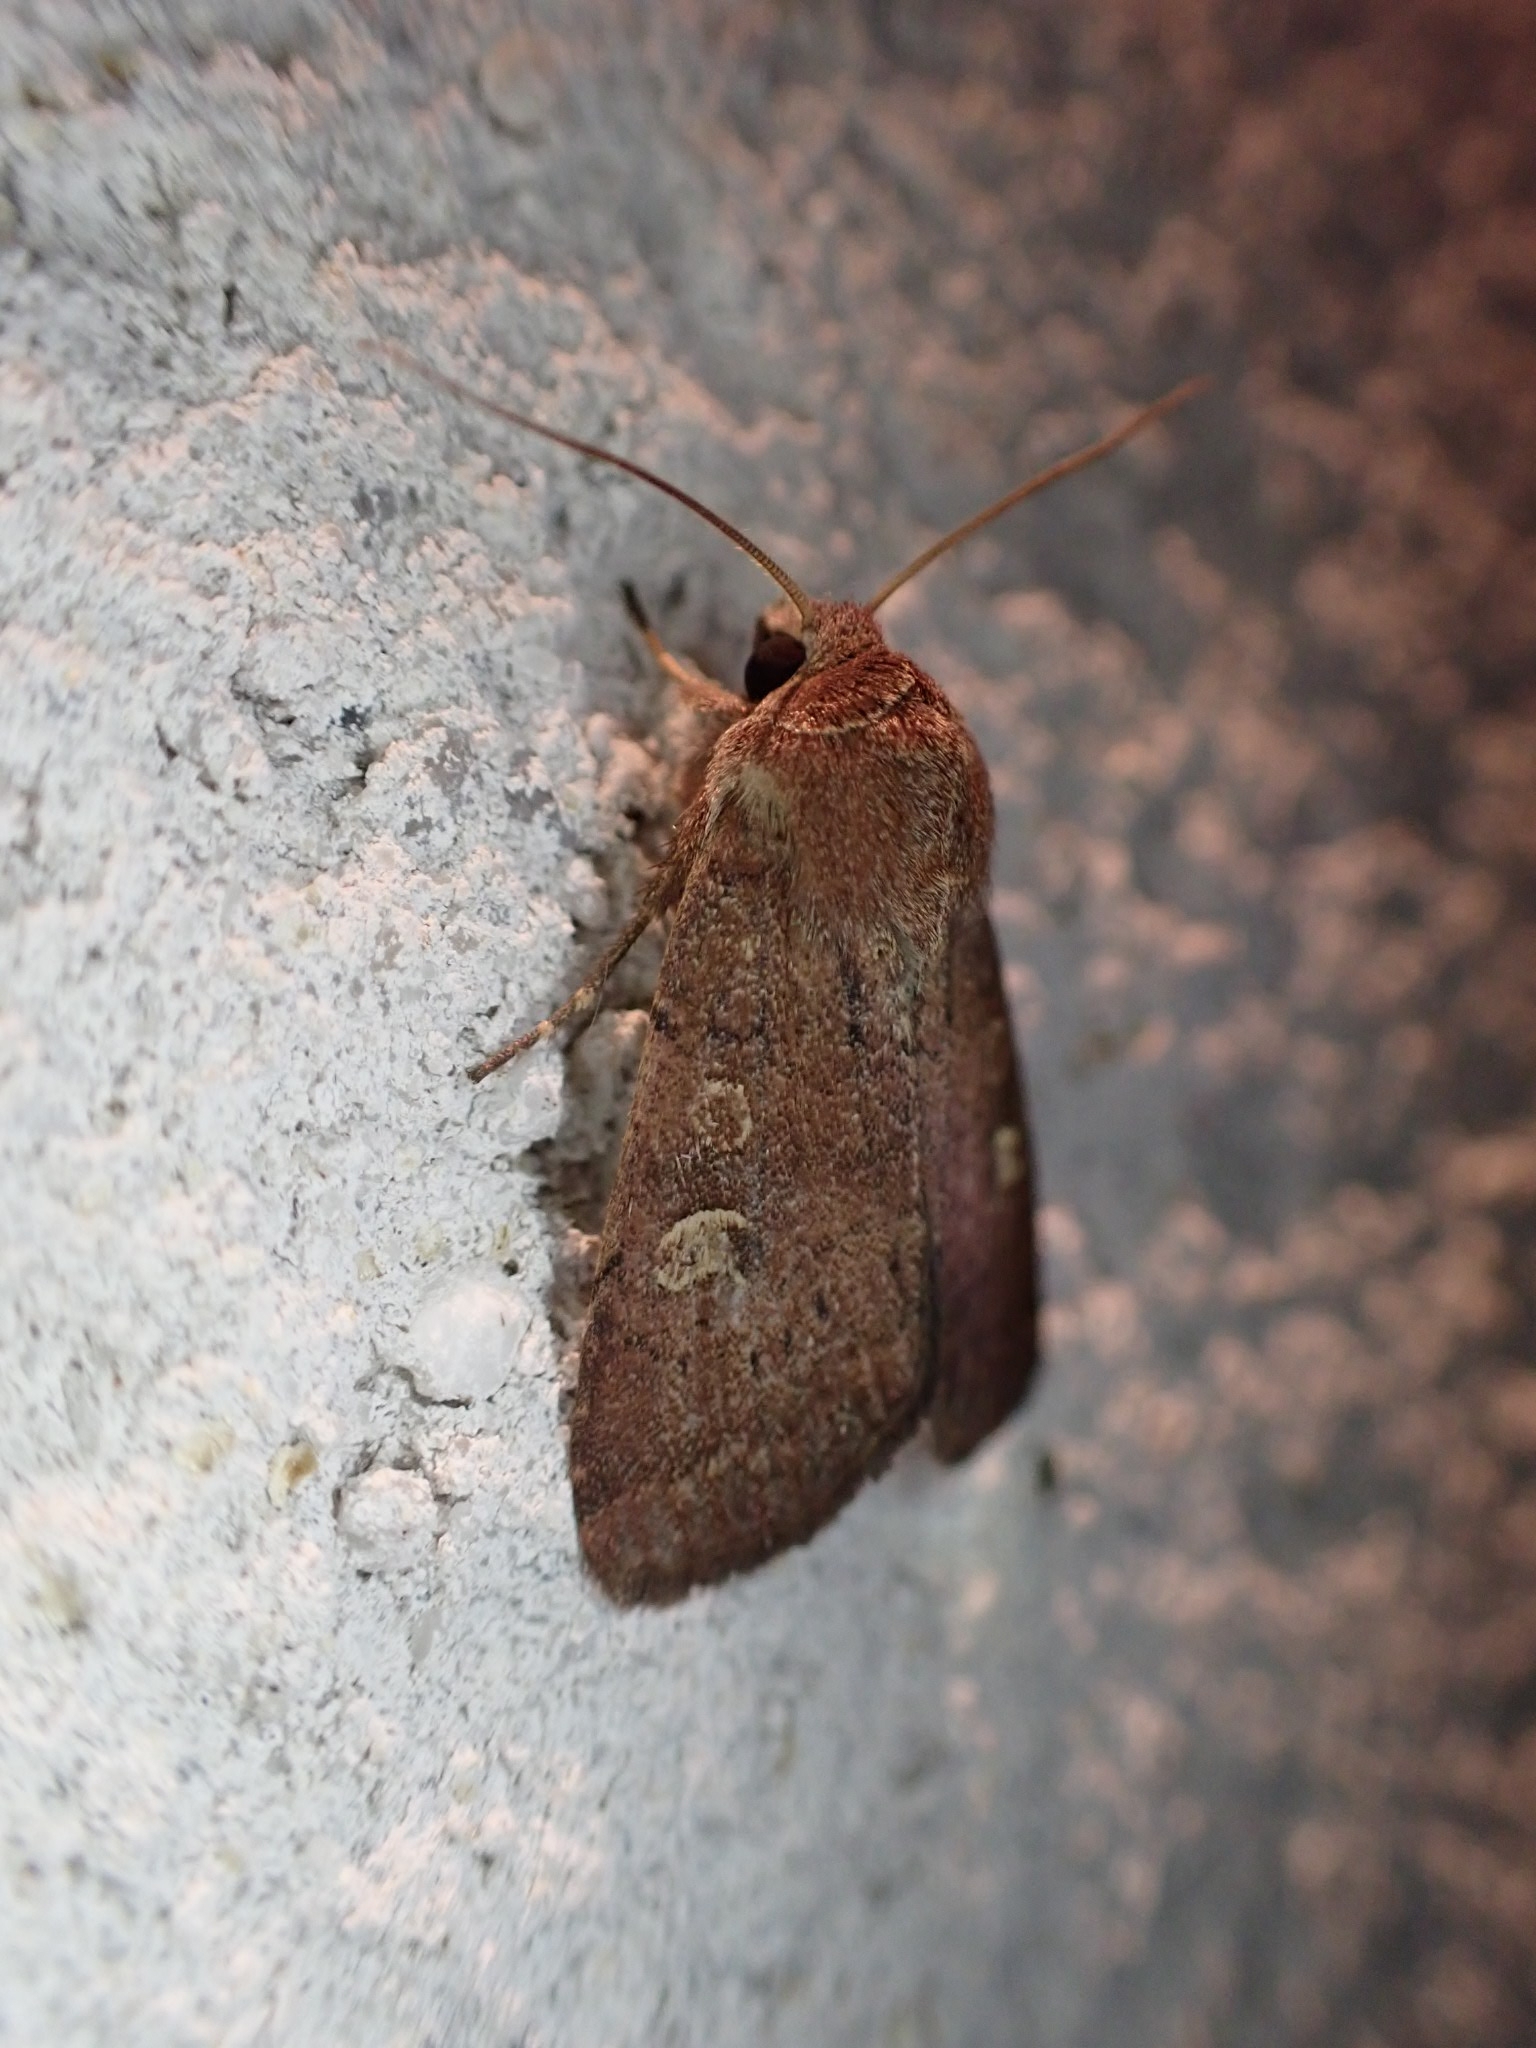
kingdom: Animalia
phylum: Arthropoda
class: Insecta
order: Lepidoptera
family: Noctuidae
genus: Xestia
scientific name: Xestia xanthographa
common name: Square-spot rustic
